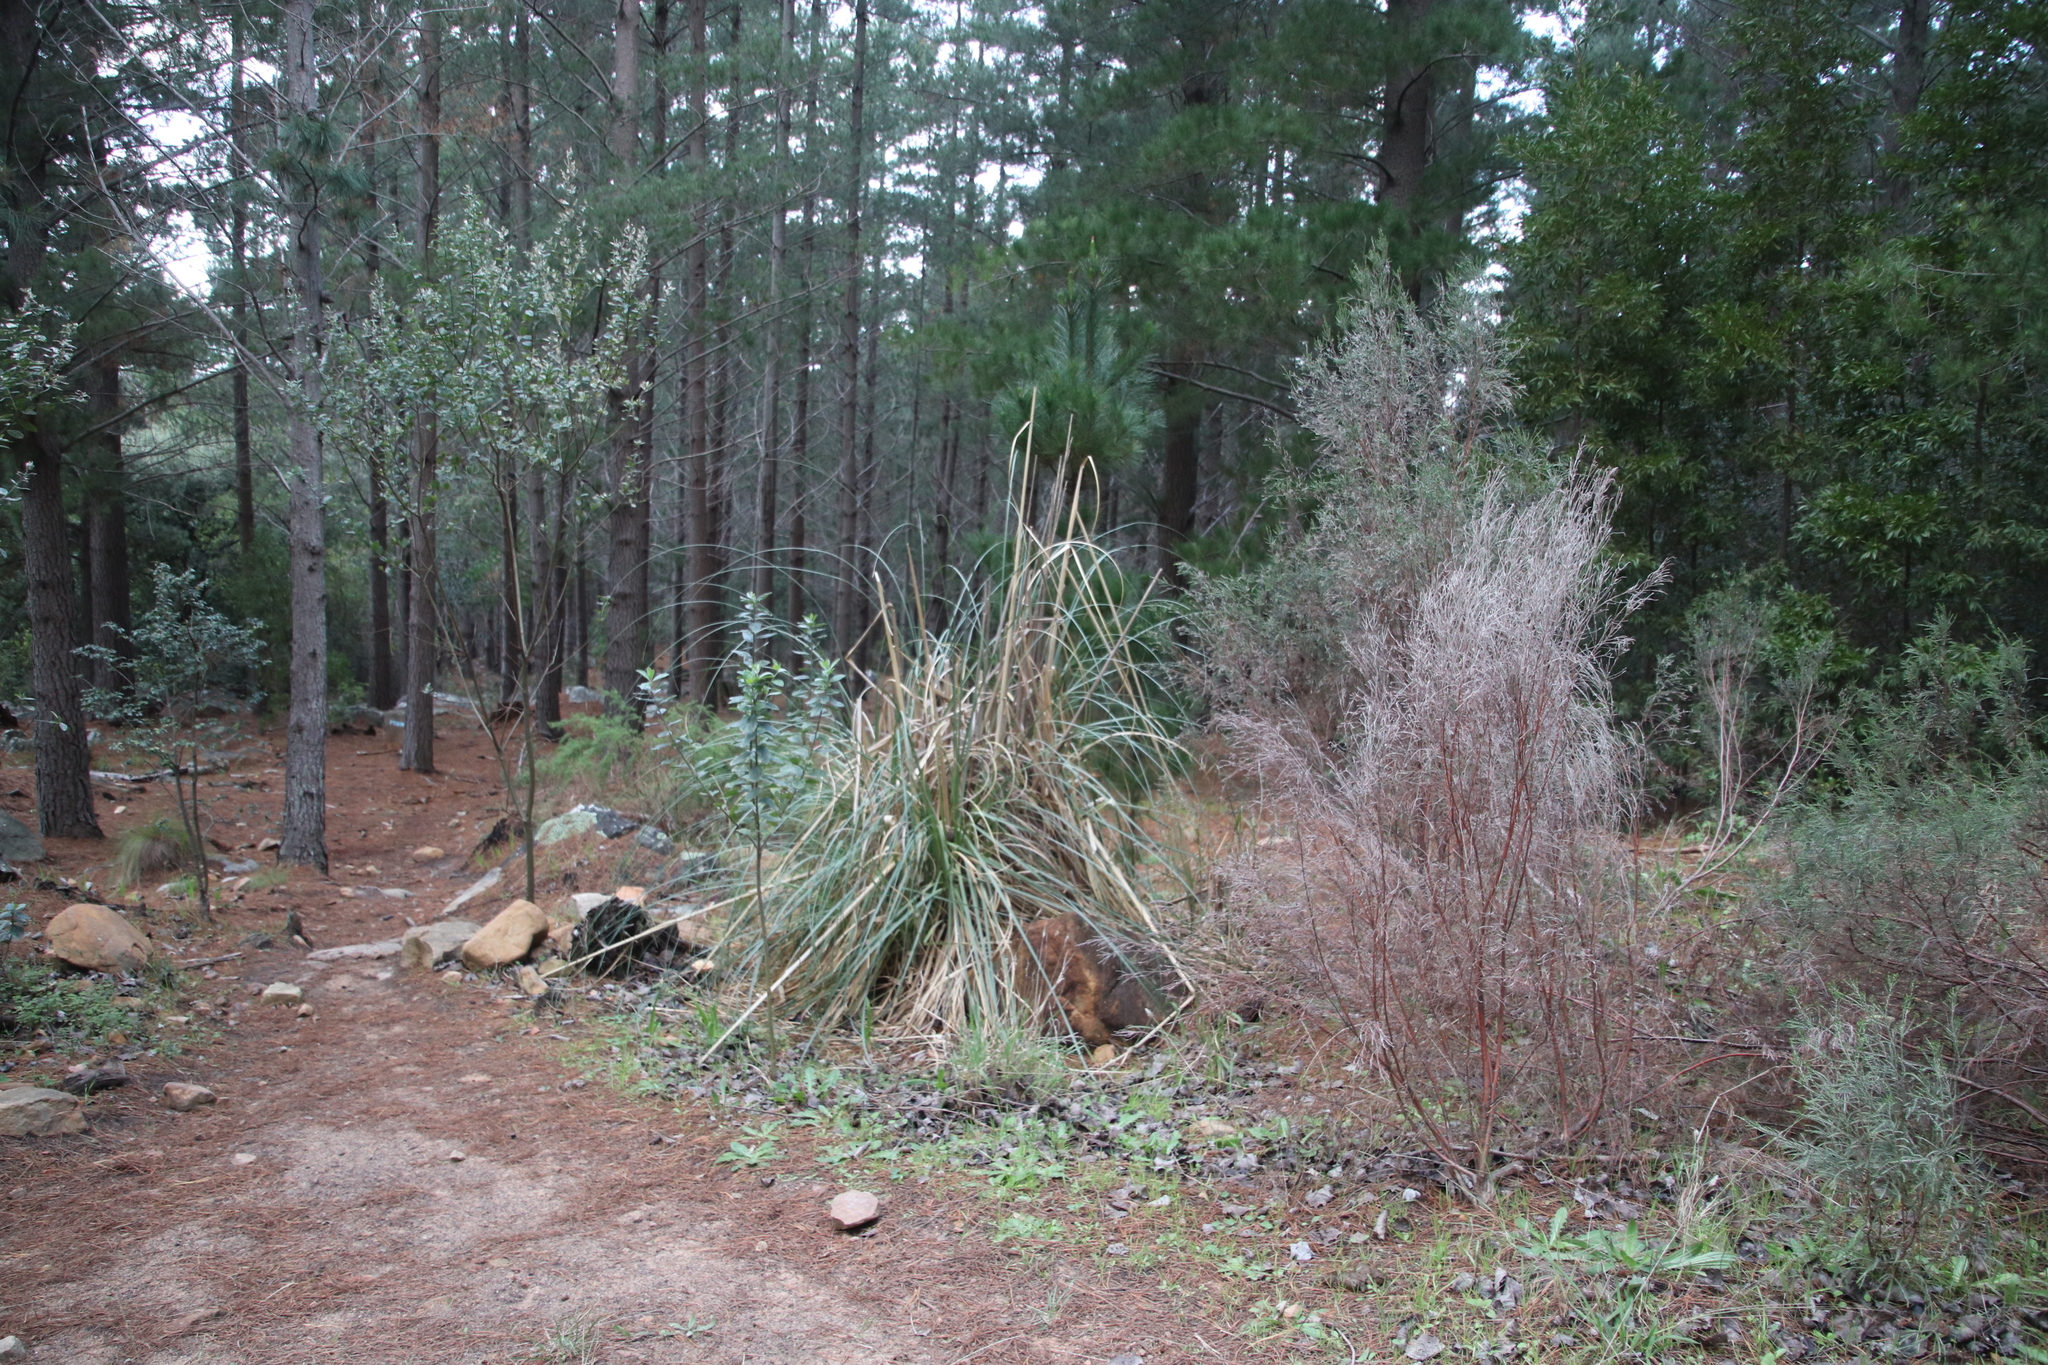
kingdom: Plantae
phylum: Tracheophyta
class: Liliopsida
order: Poales
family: Poaceae
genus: Cortaderia
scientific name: Cortaderia selloana
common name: Uruguayan pampas grass
